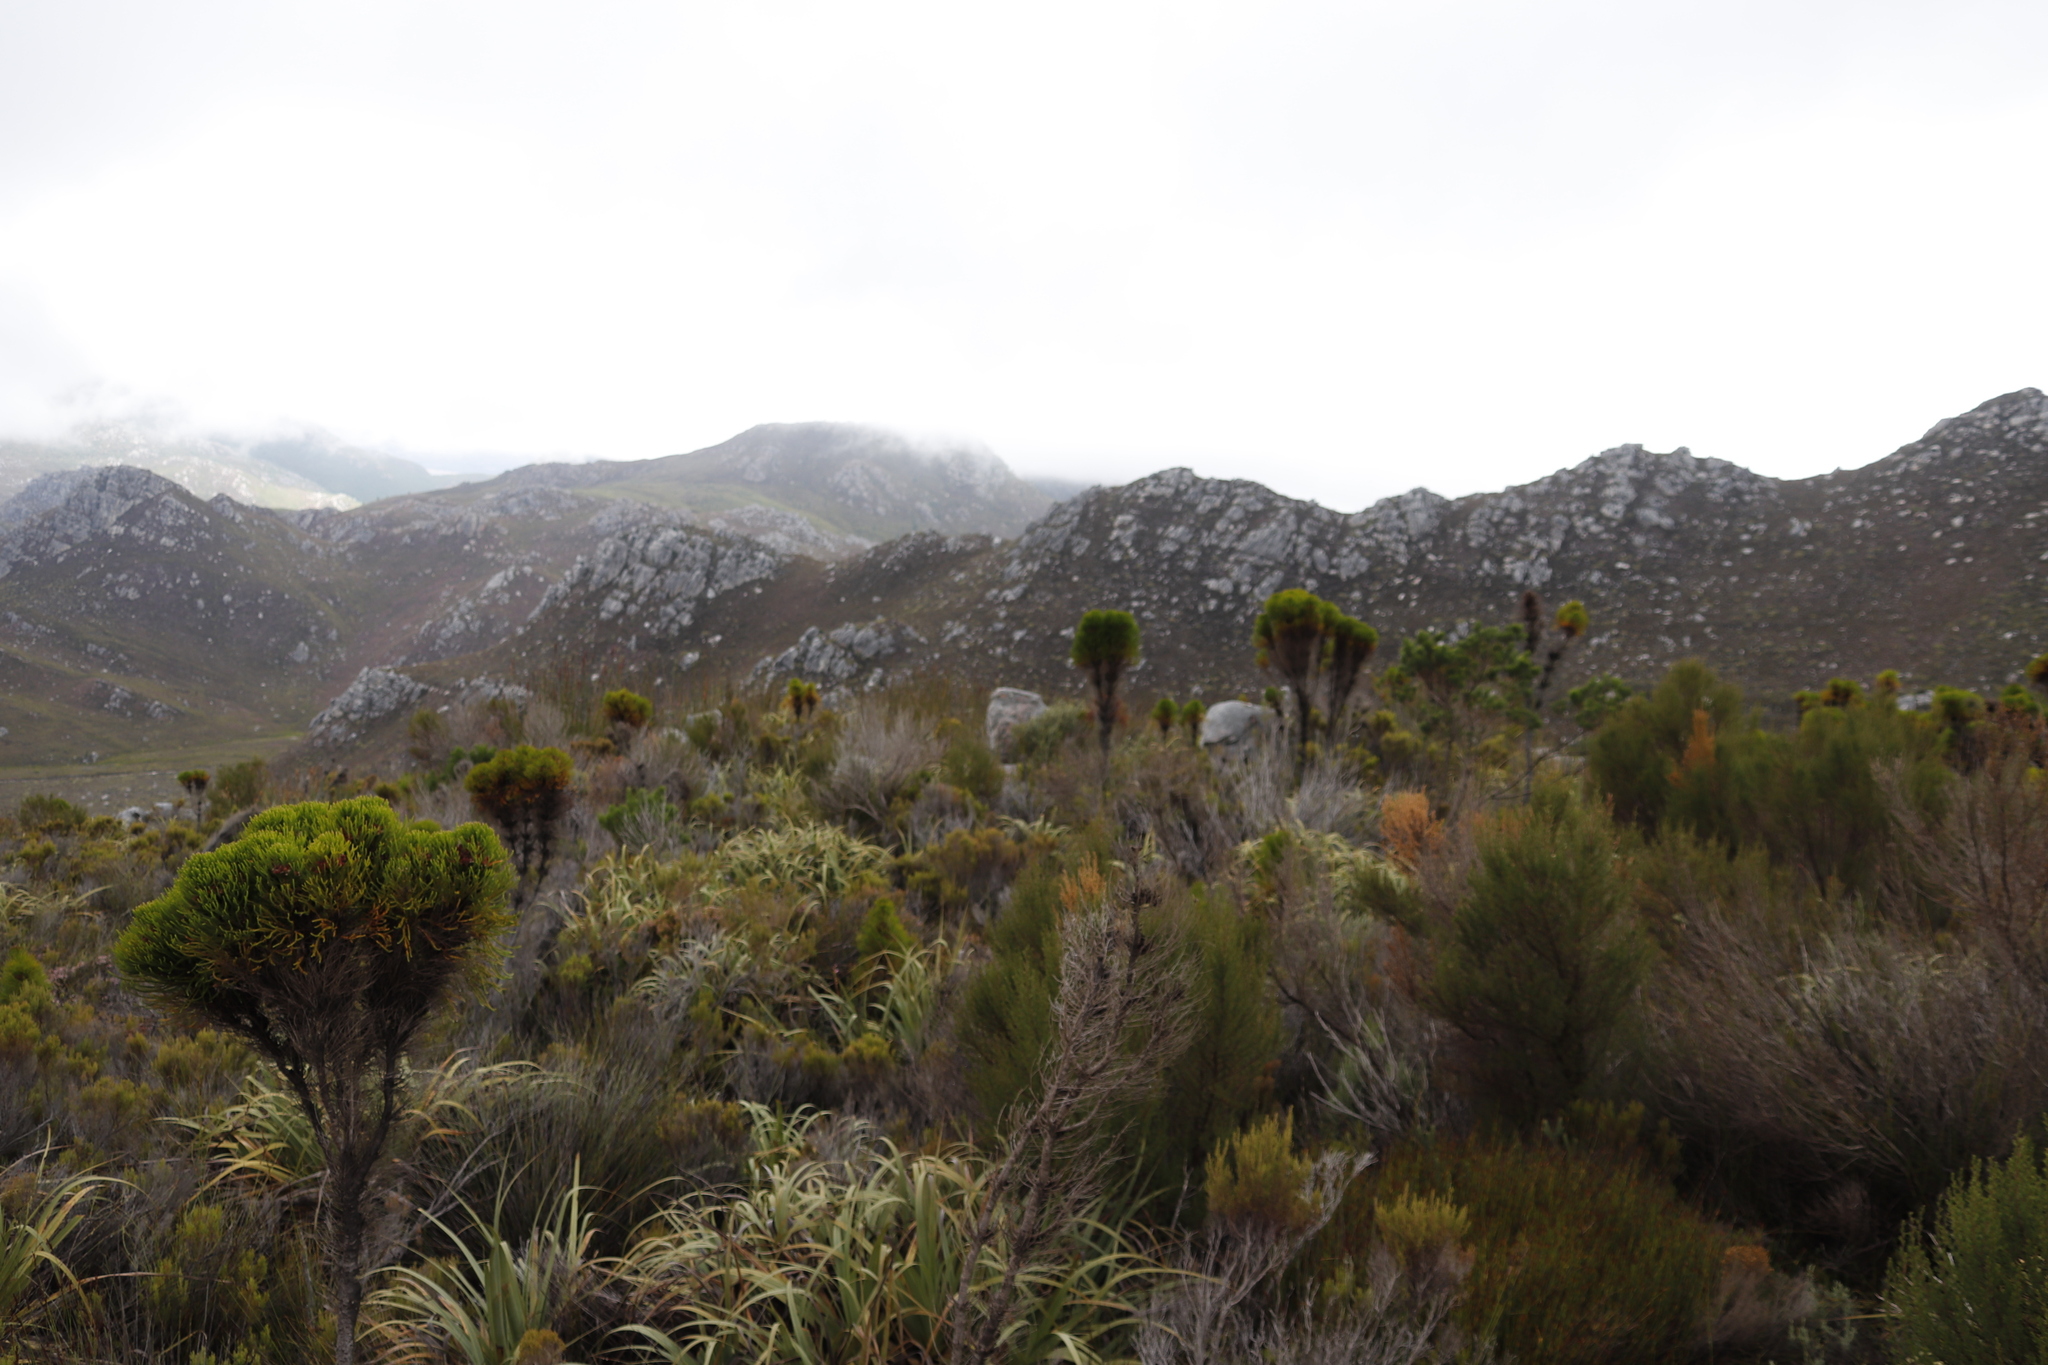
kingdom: Plantae
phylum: Tracheophyta
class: Liliopsida
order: Poales
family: Cyperaceae
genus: Tetraria
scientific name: Tetraria thermalis
